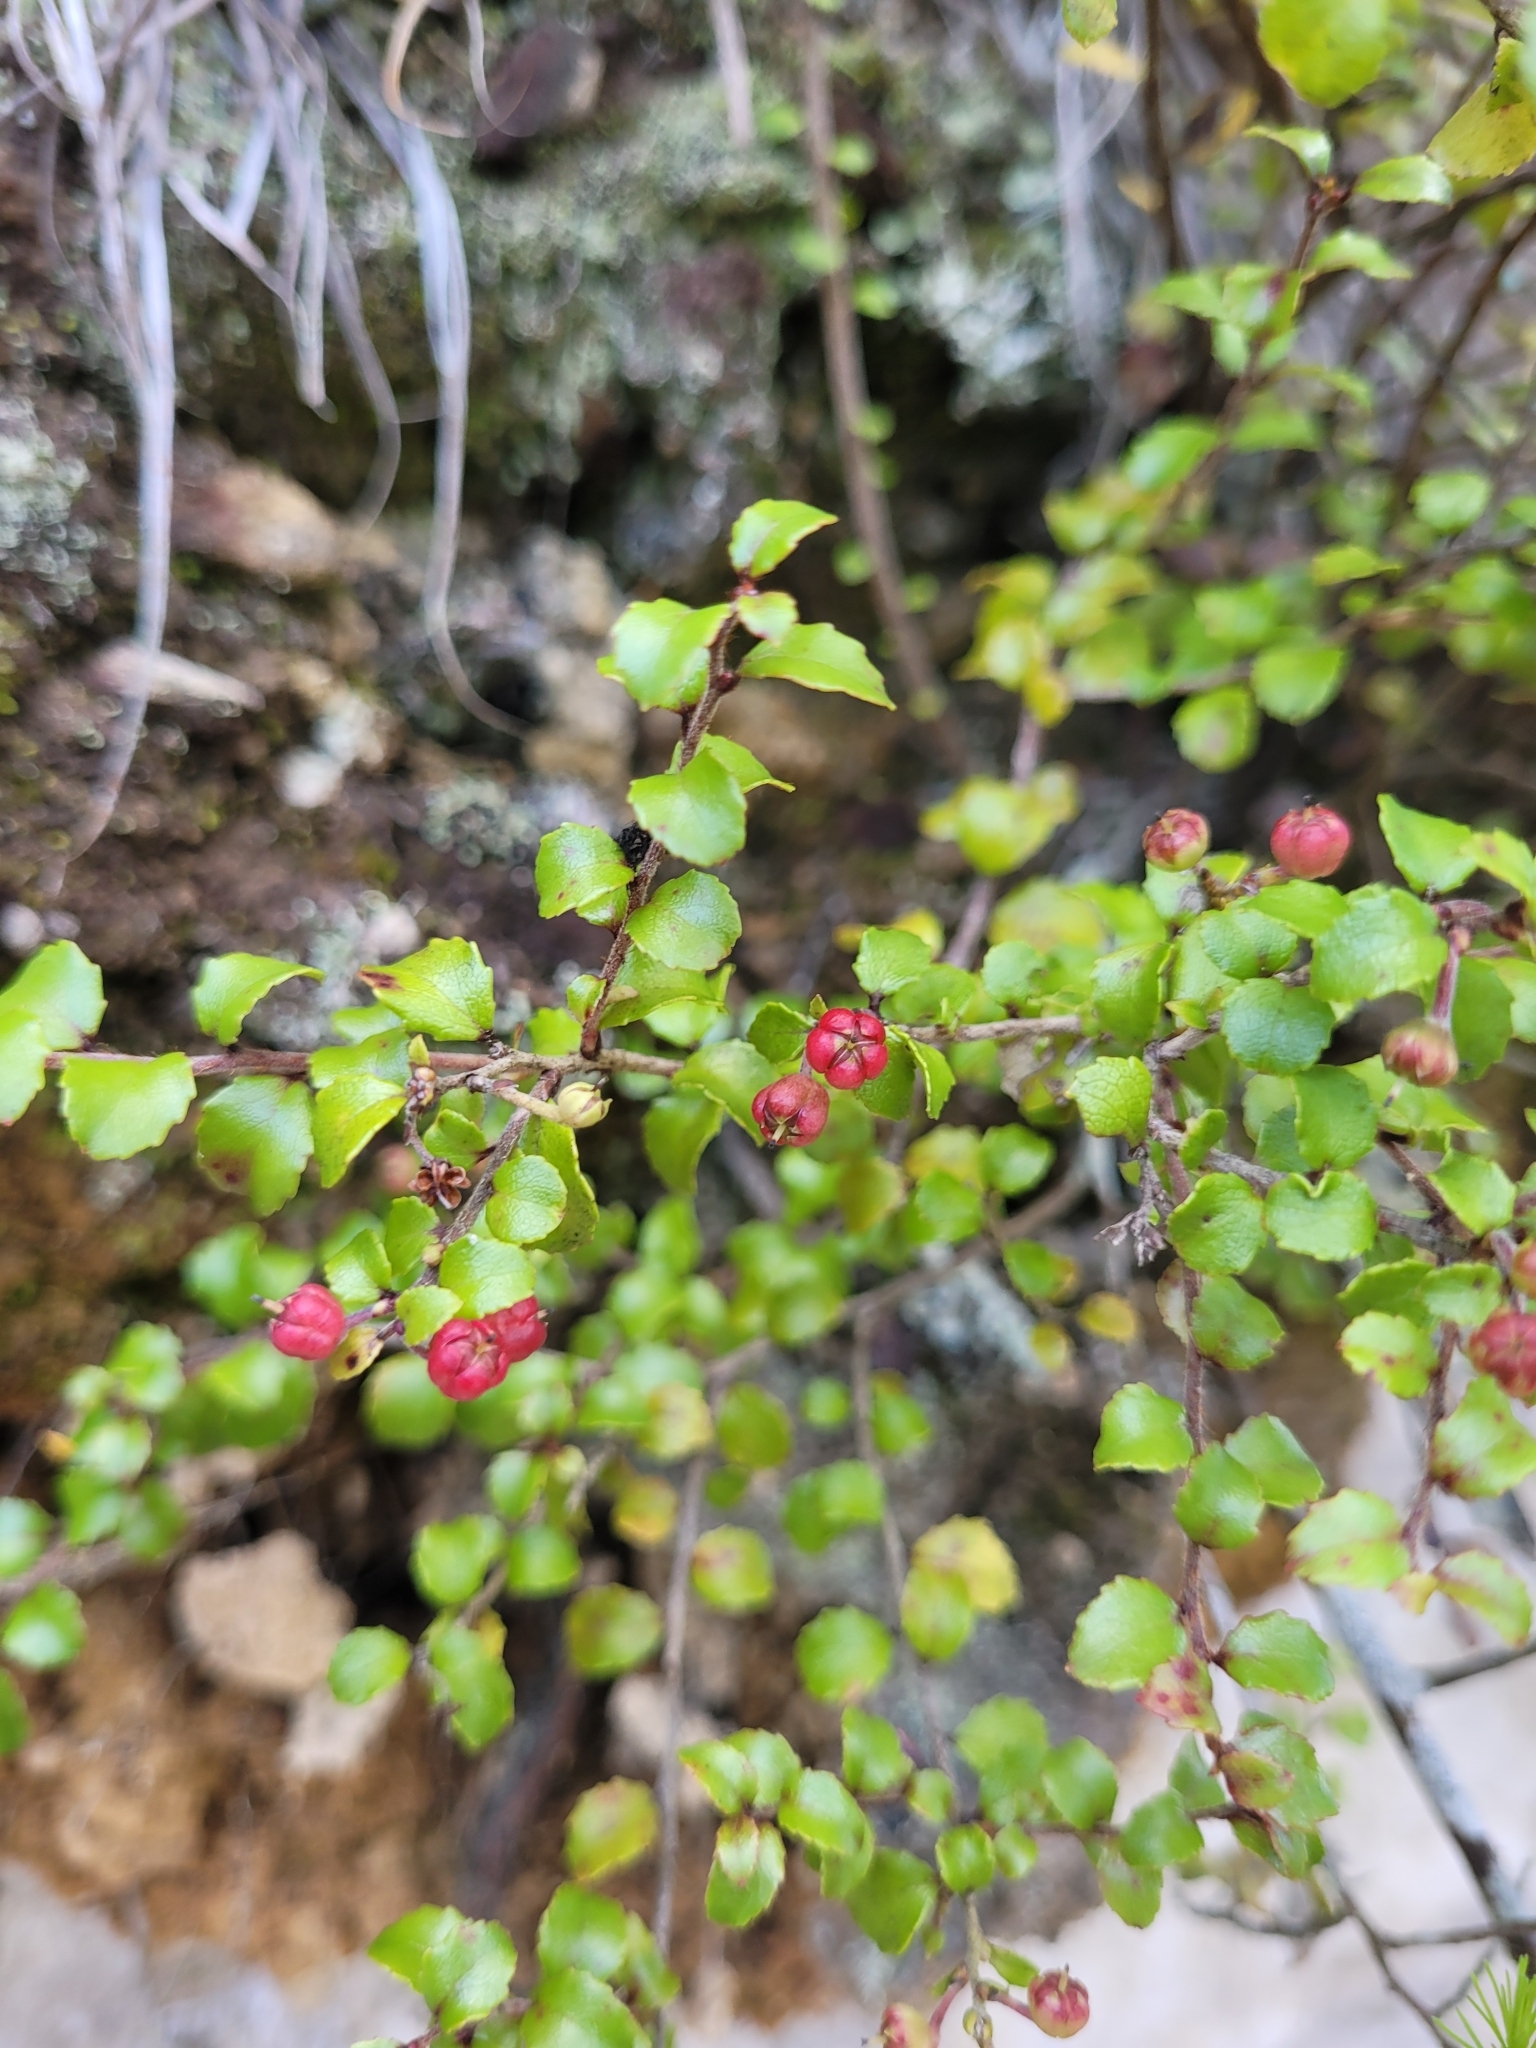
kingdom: Plantae
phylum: Tracheophyta
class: Magnoliopsida
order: Ericales
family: Ericaceae
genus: Gaultheria
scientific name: Gaultheria antipoda
